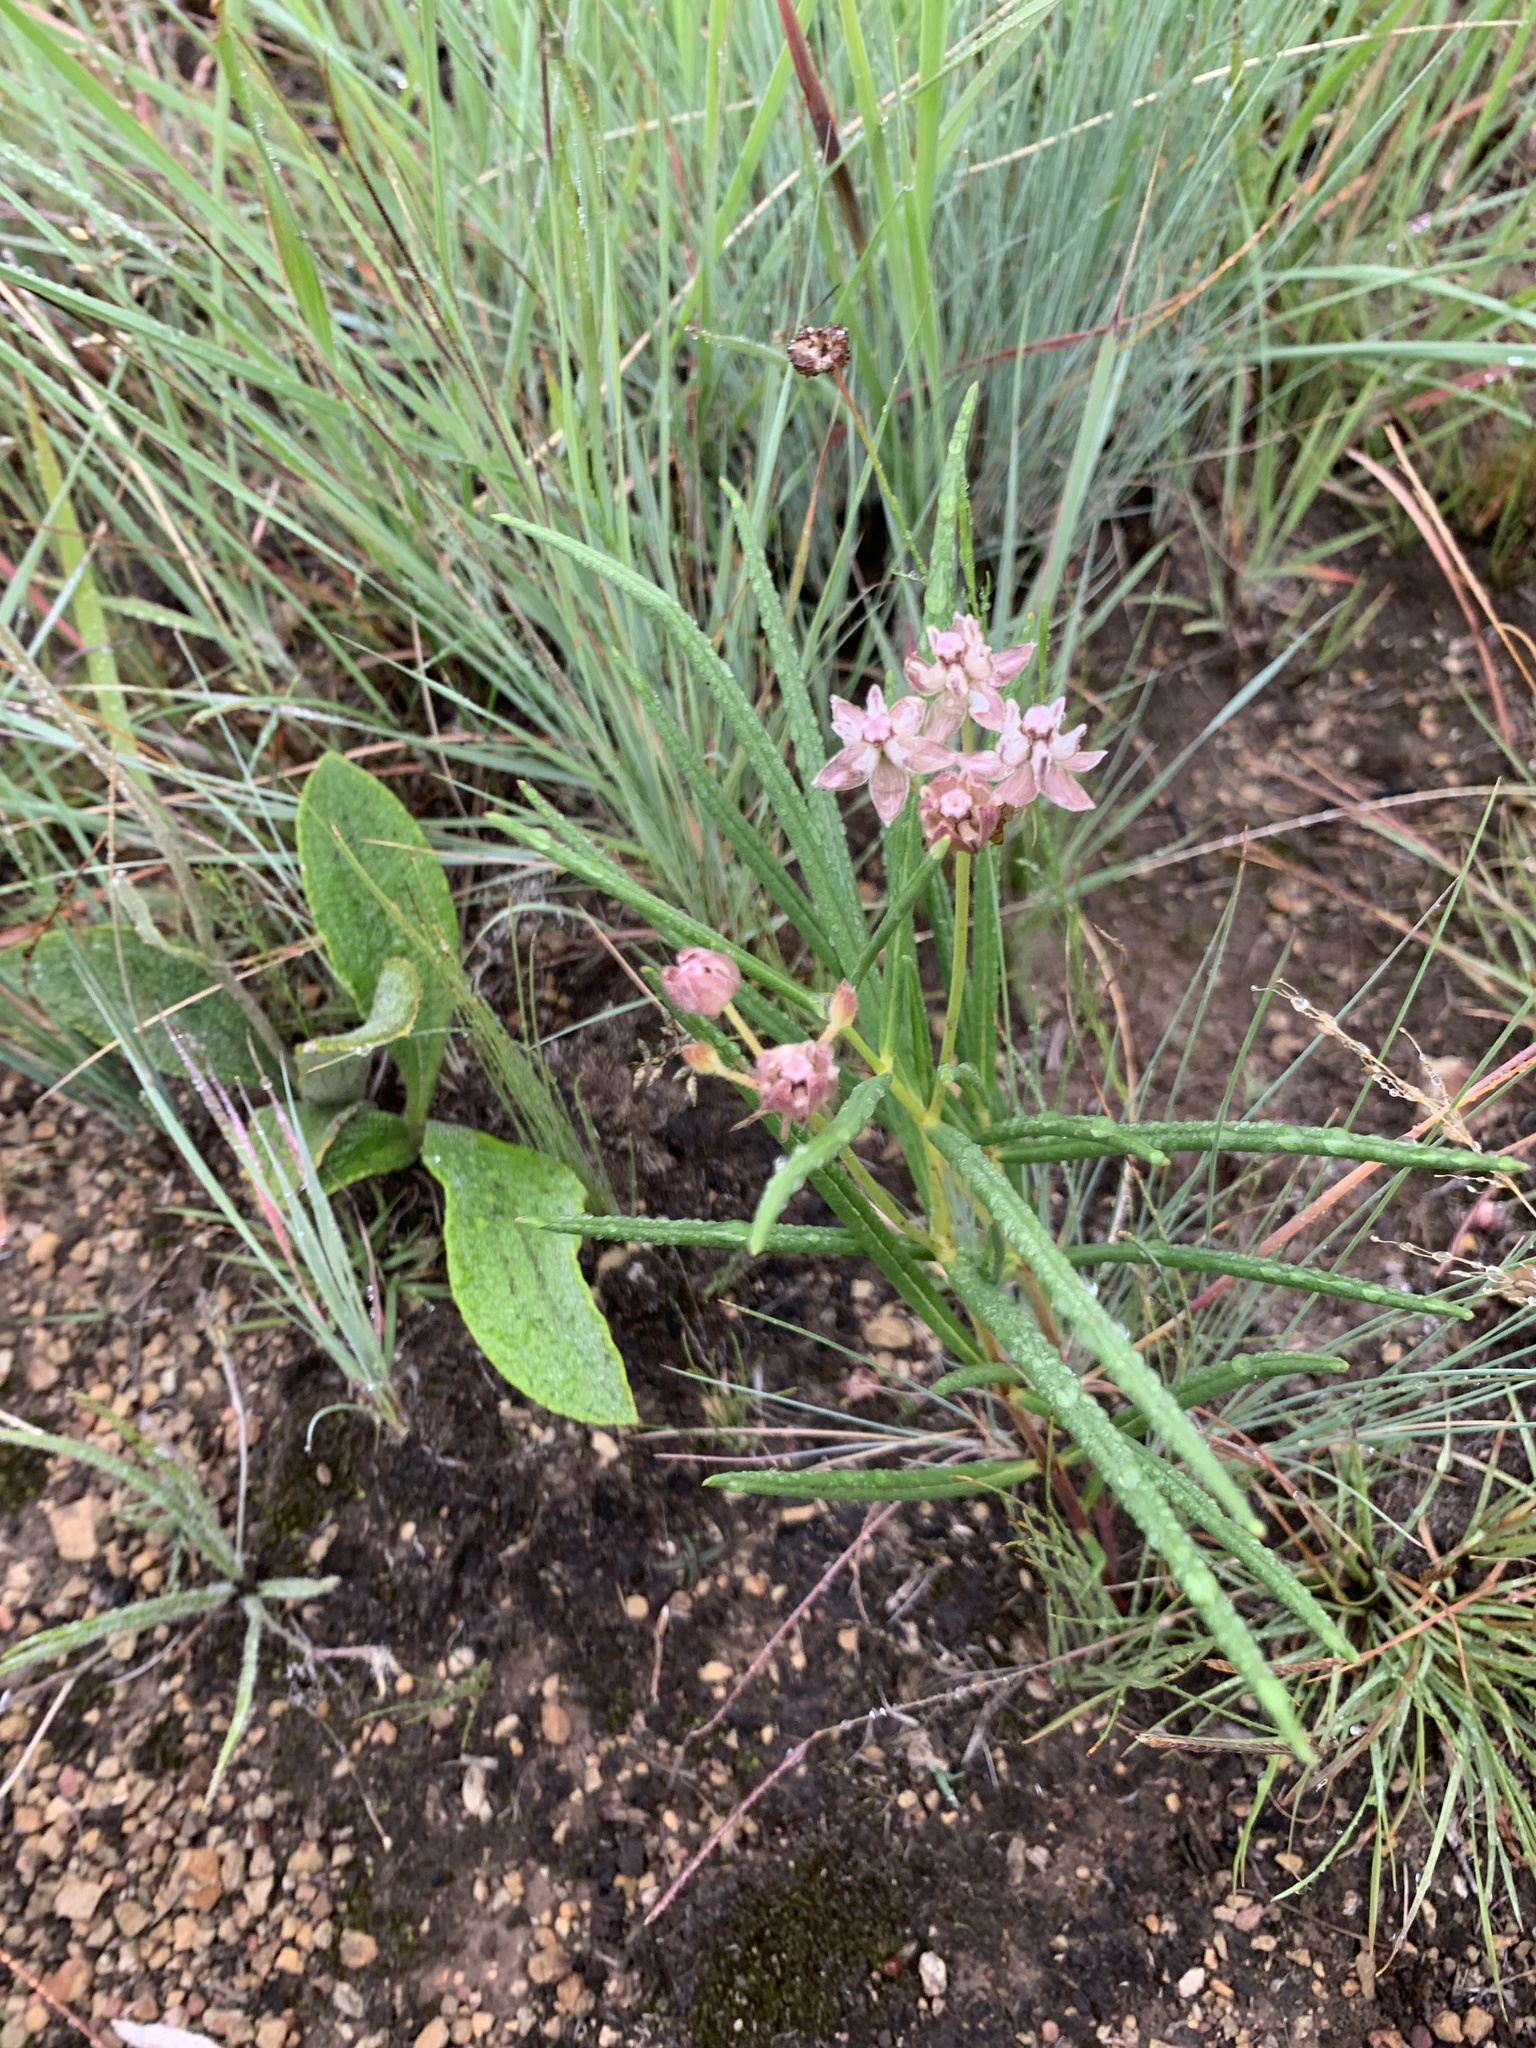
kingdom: Plantae
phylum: Tracheophyta
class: Magnoliopsida
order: Gentianales
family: Apocynaceae
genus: Asclepias
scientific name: Asclepias cucullata
